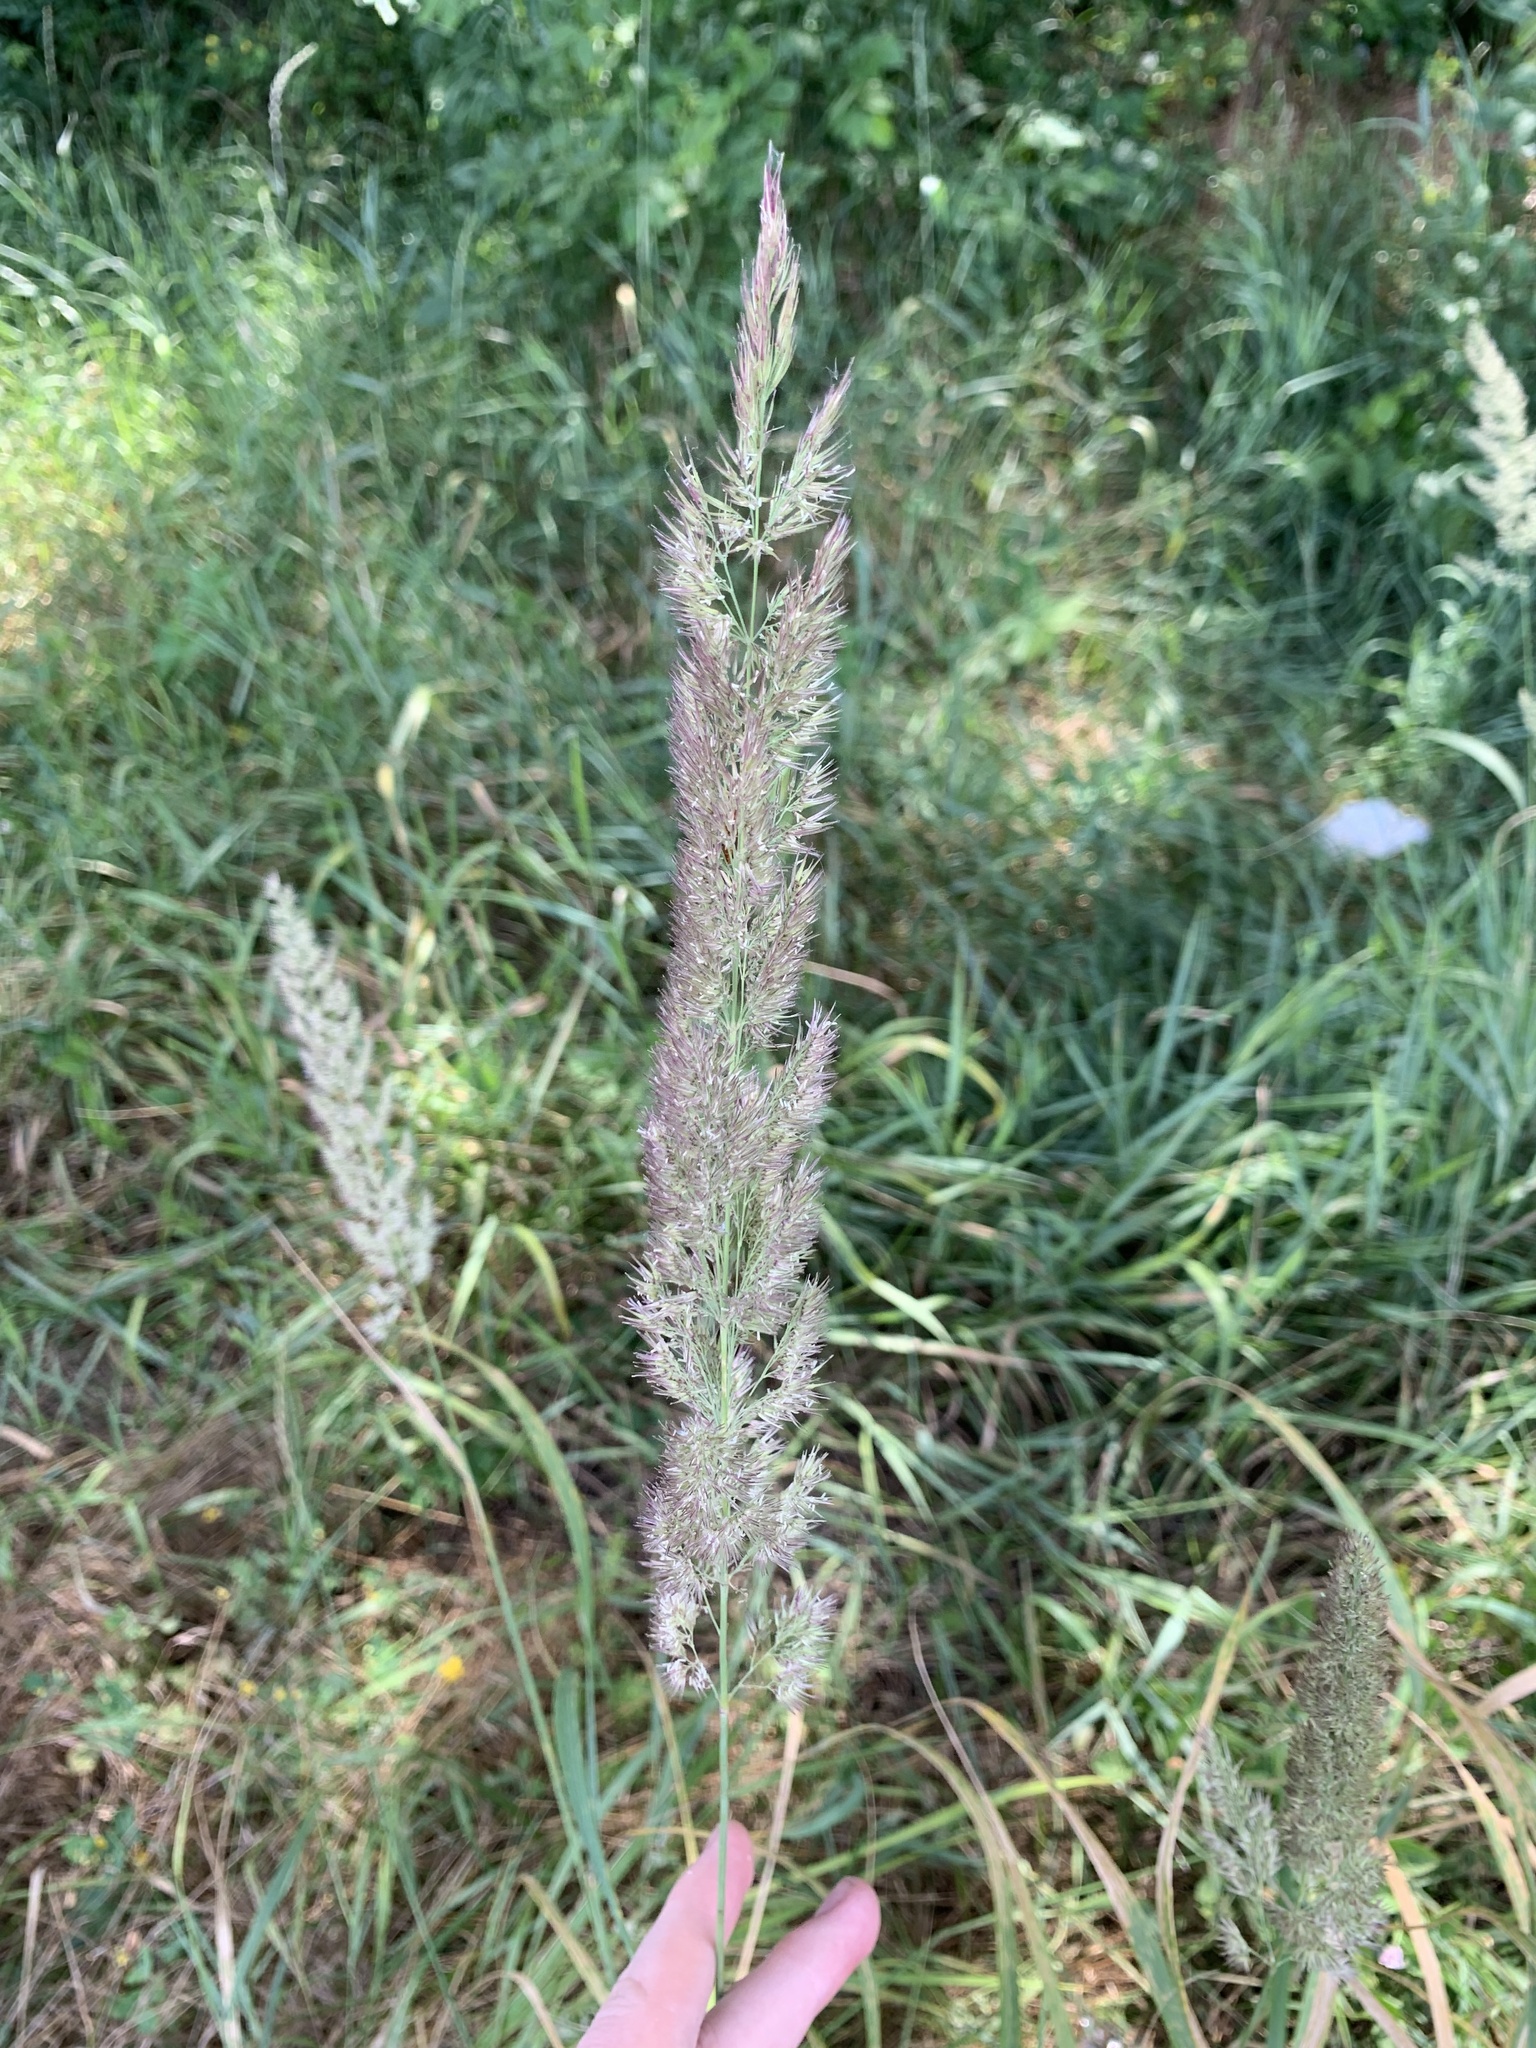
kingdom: Plantae
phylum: Tracheophyta
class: Liliopsida
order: Poales
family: Poaceae
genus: Calamagrostis
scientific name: Calamagrostis epigejos
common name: Wood small-reed
